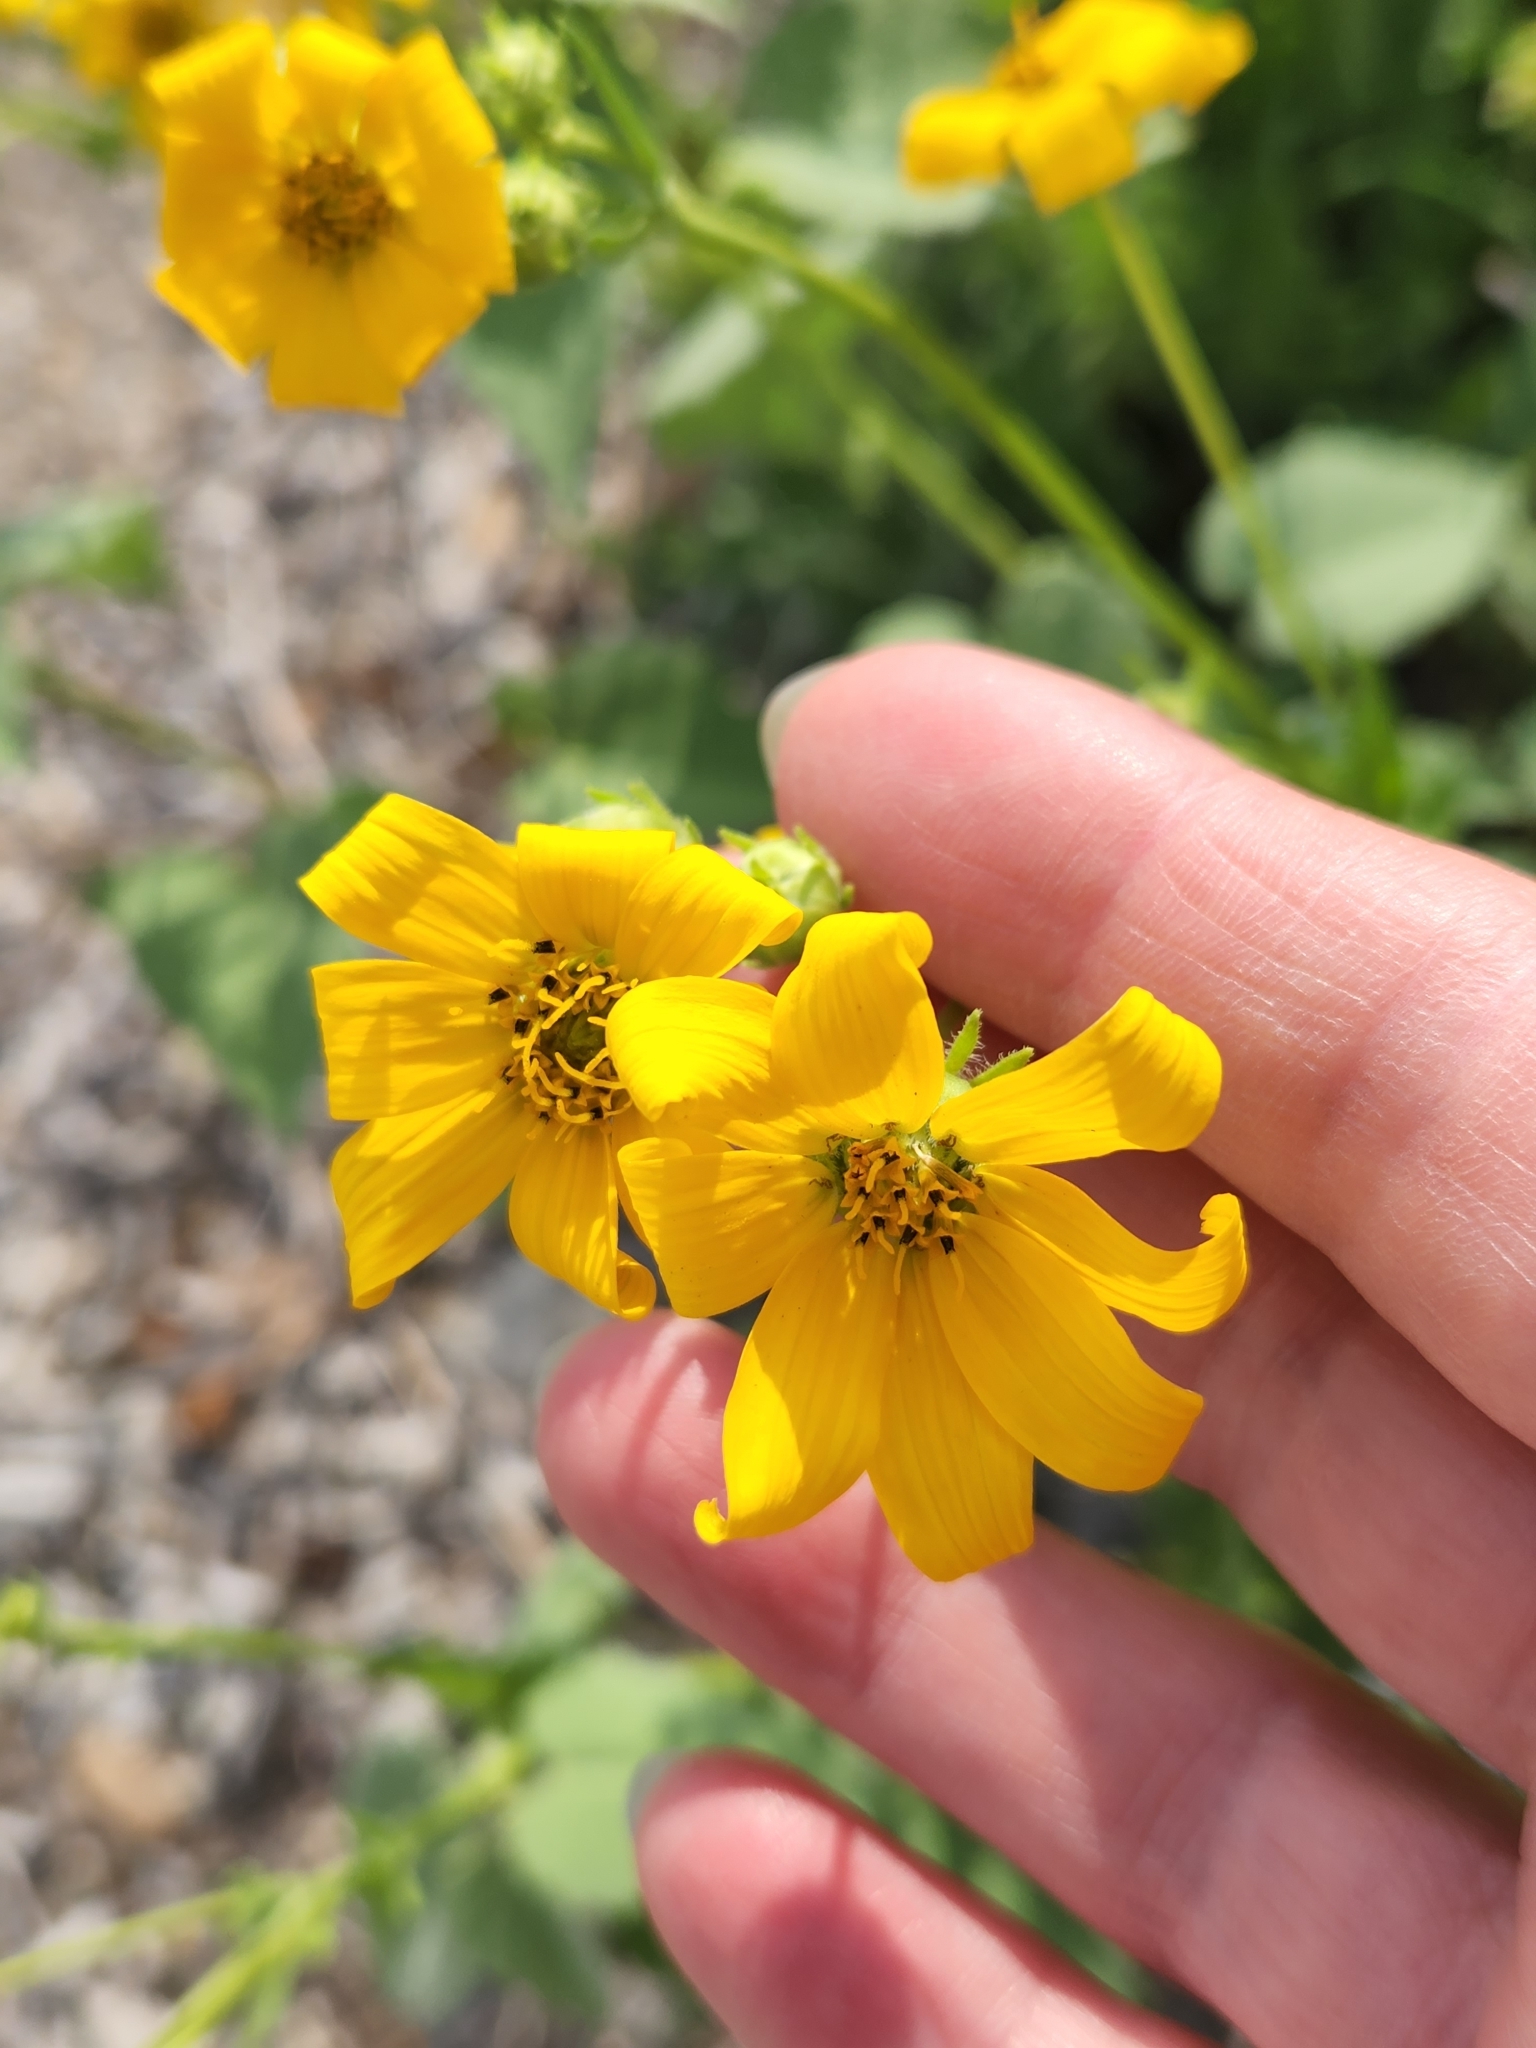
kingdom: Plantae
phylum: Tracheophyta
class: Magnoliopsida
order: Asterales
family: Asteraceae
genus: Engelmannia
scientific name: Engelmannia peristenia
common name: Engelmann's daisy
